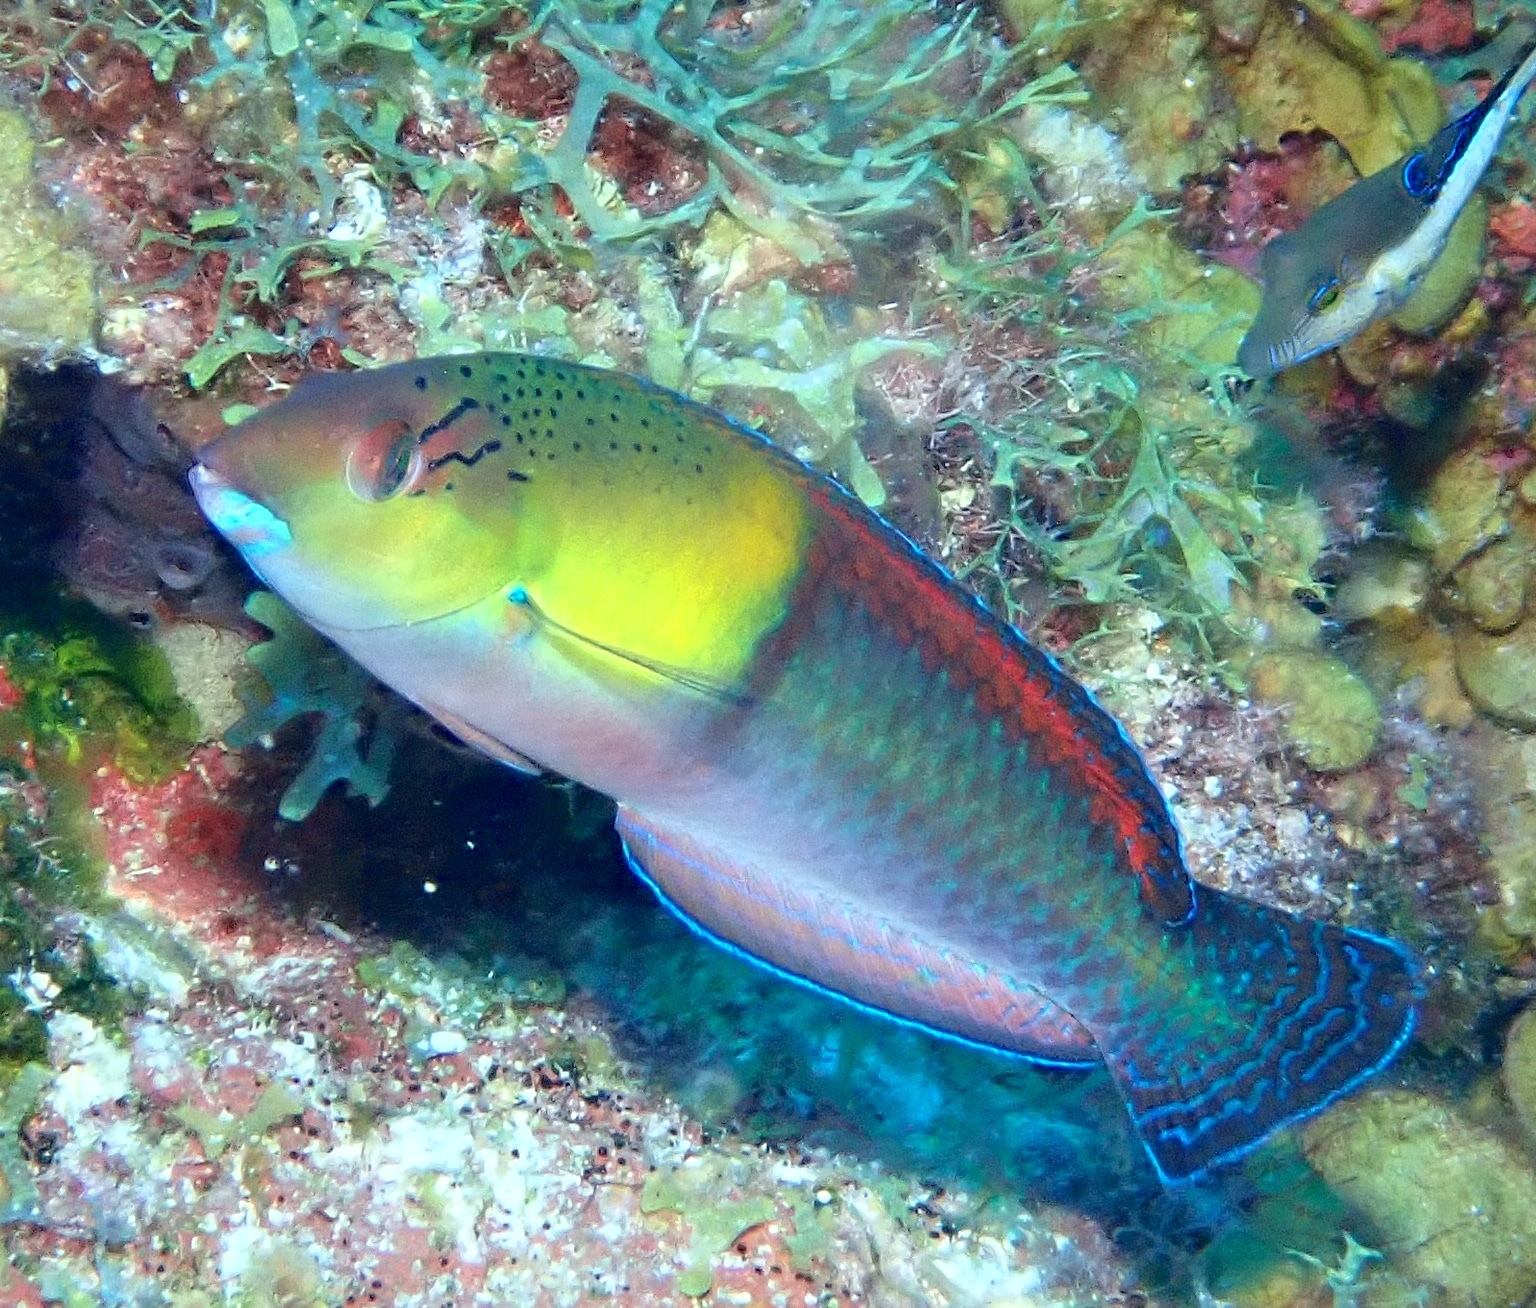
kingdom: Animalia
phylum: Chordata
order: Perciformes
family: Labridae
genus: Halichoeres
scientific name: Halichoeres garnoti
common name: Yellowhead wrasse
